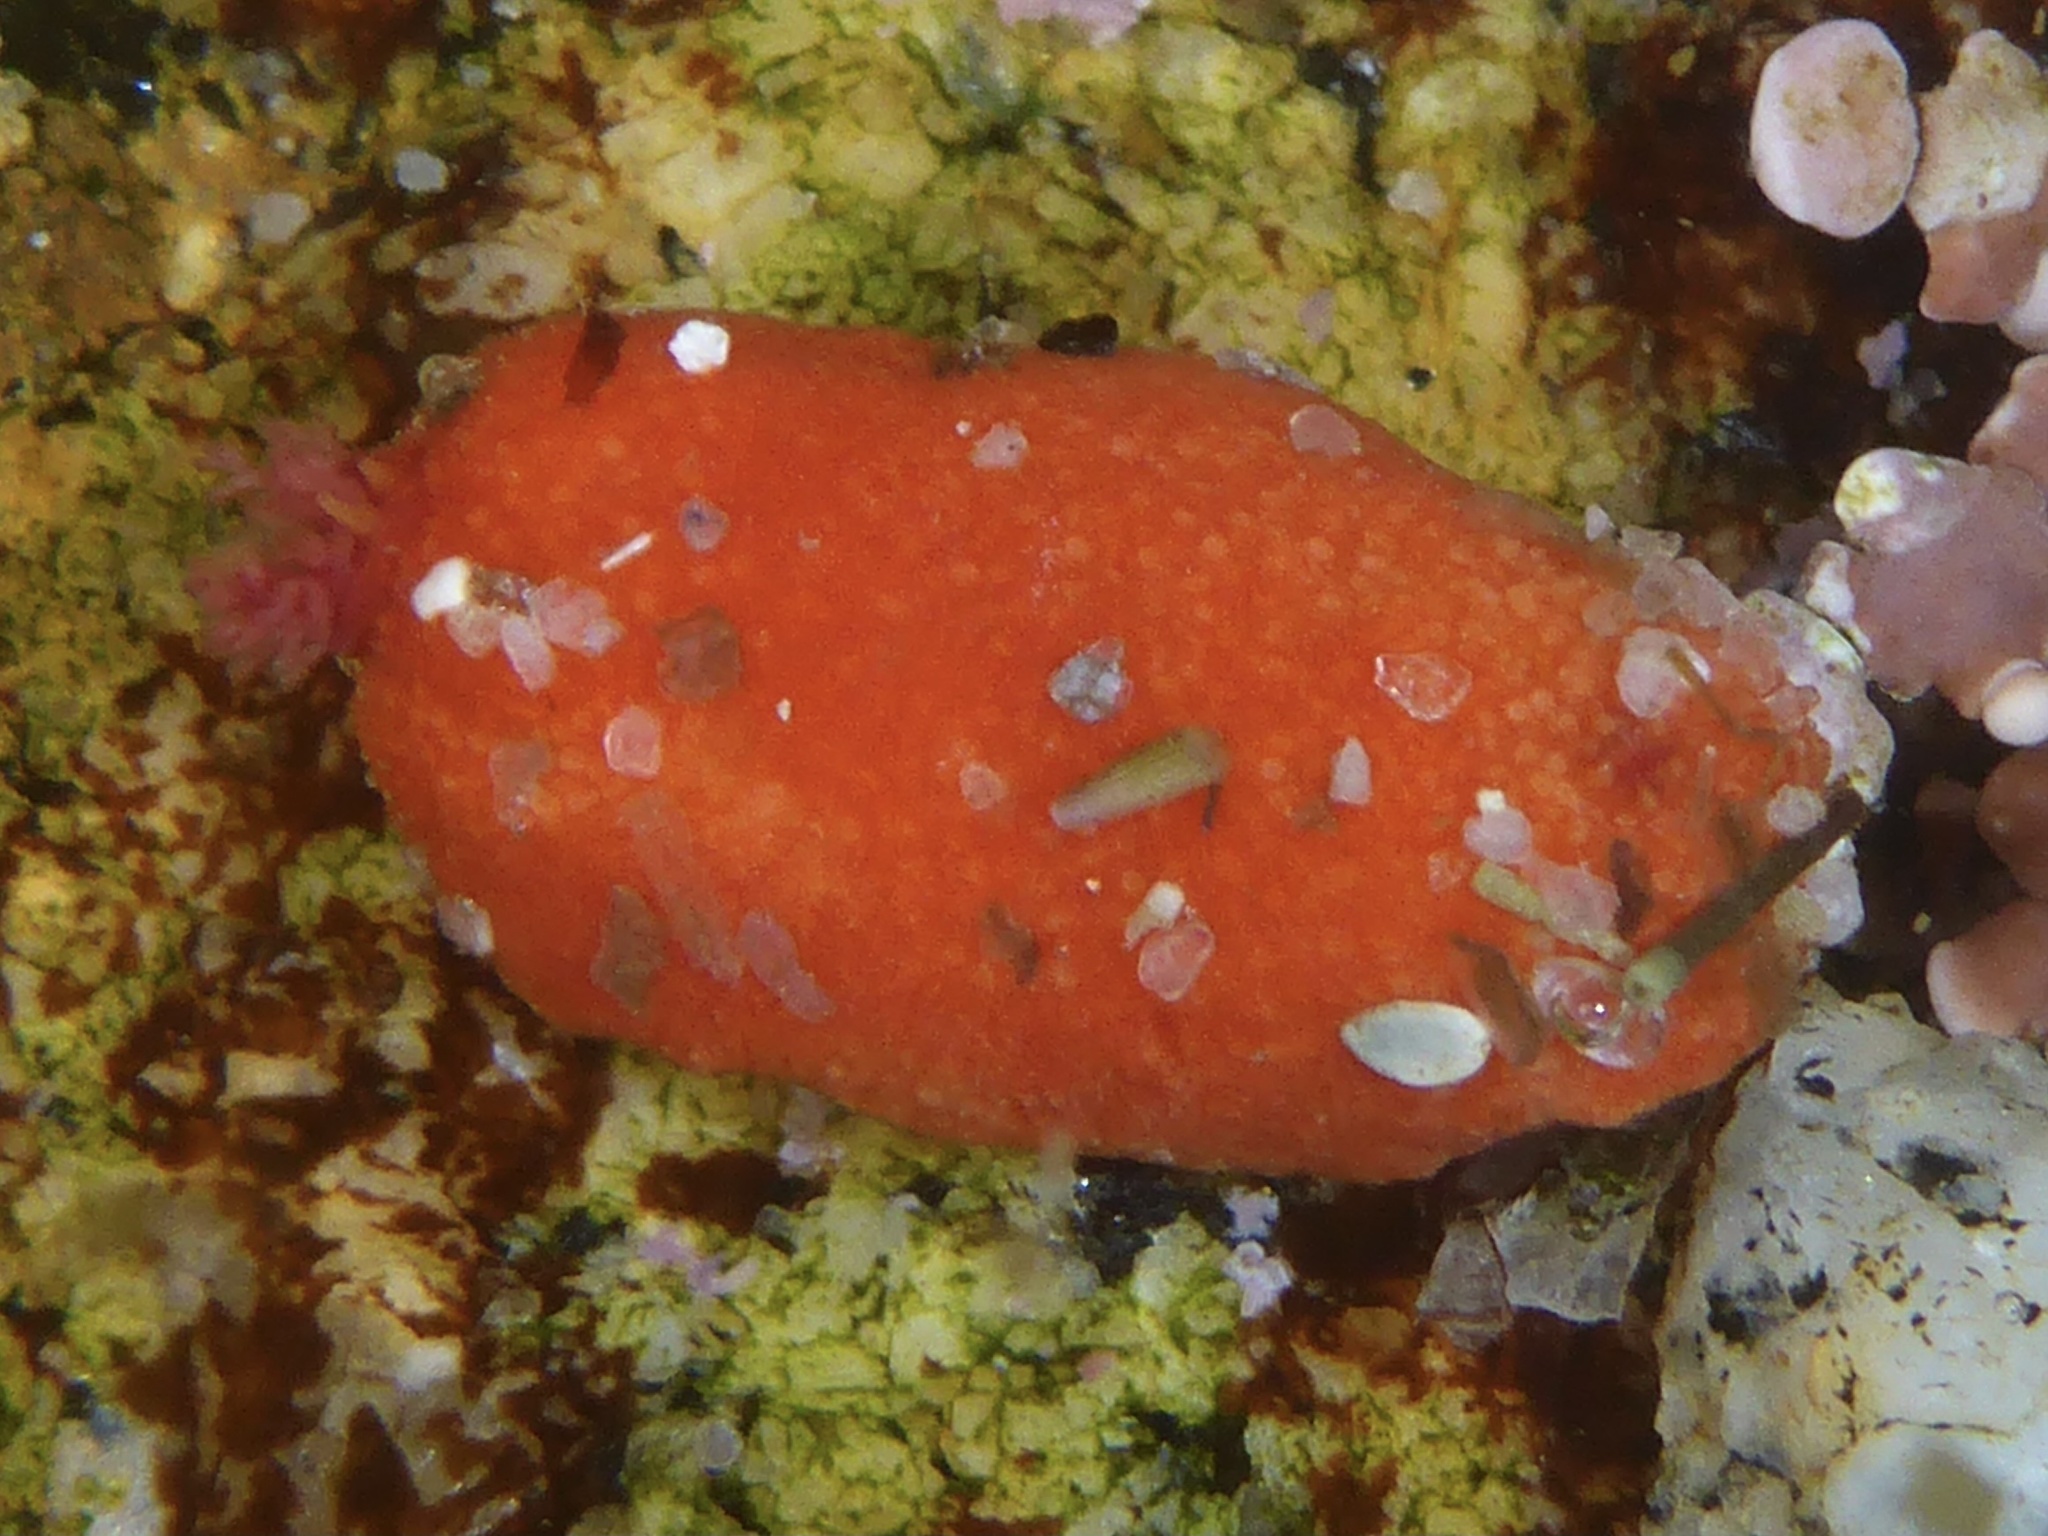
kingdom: Animalia
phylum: Echinodermata
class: Holothuroidea
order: Dendrochirotida
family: Psolidae
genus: Lissothuria
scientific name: Lissothuria nutriens
